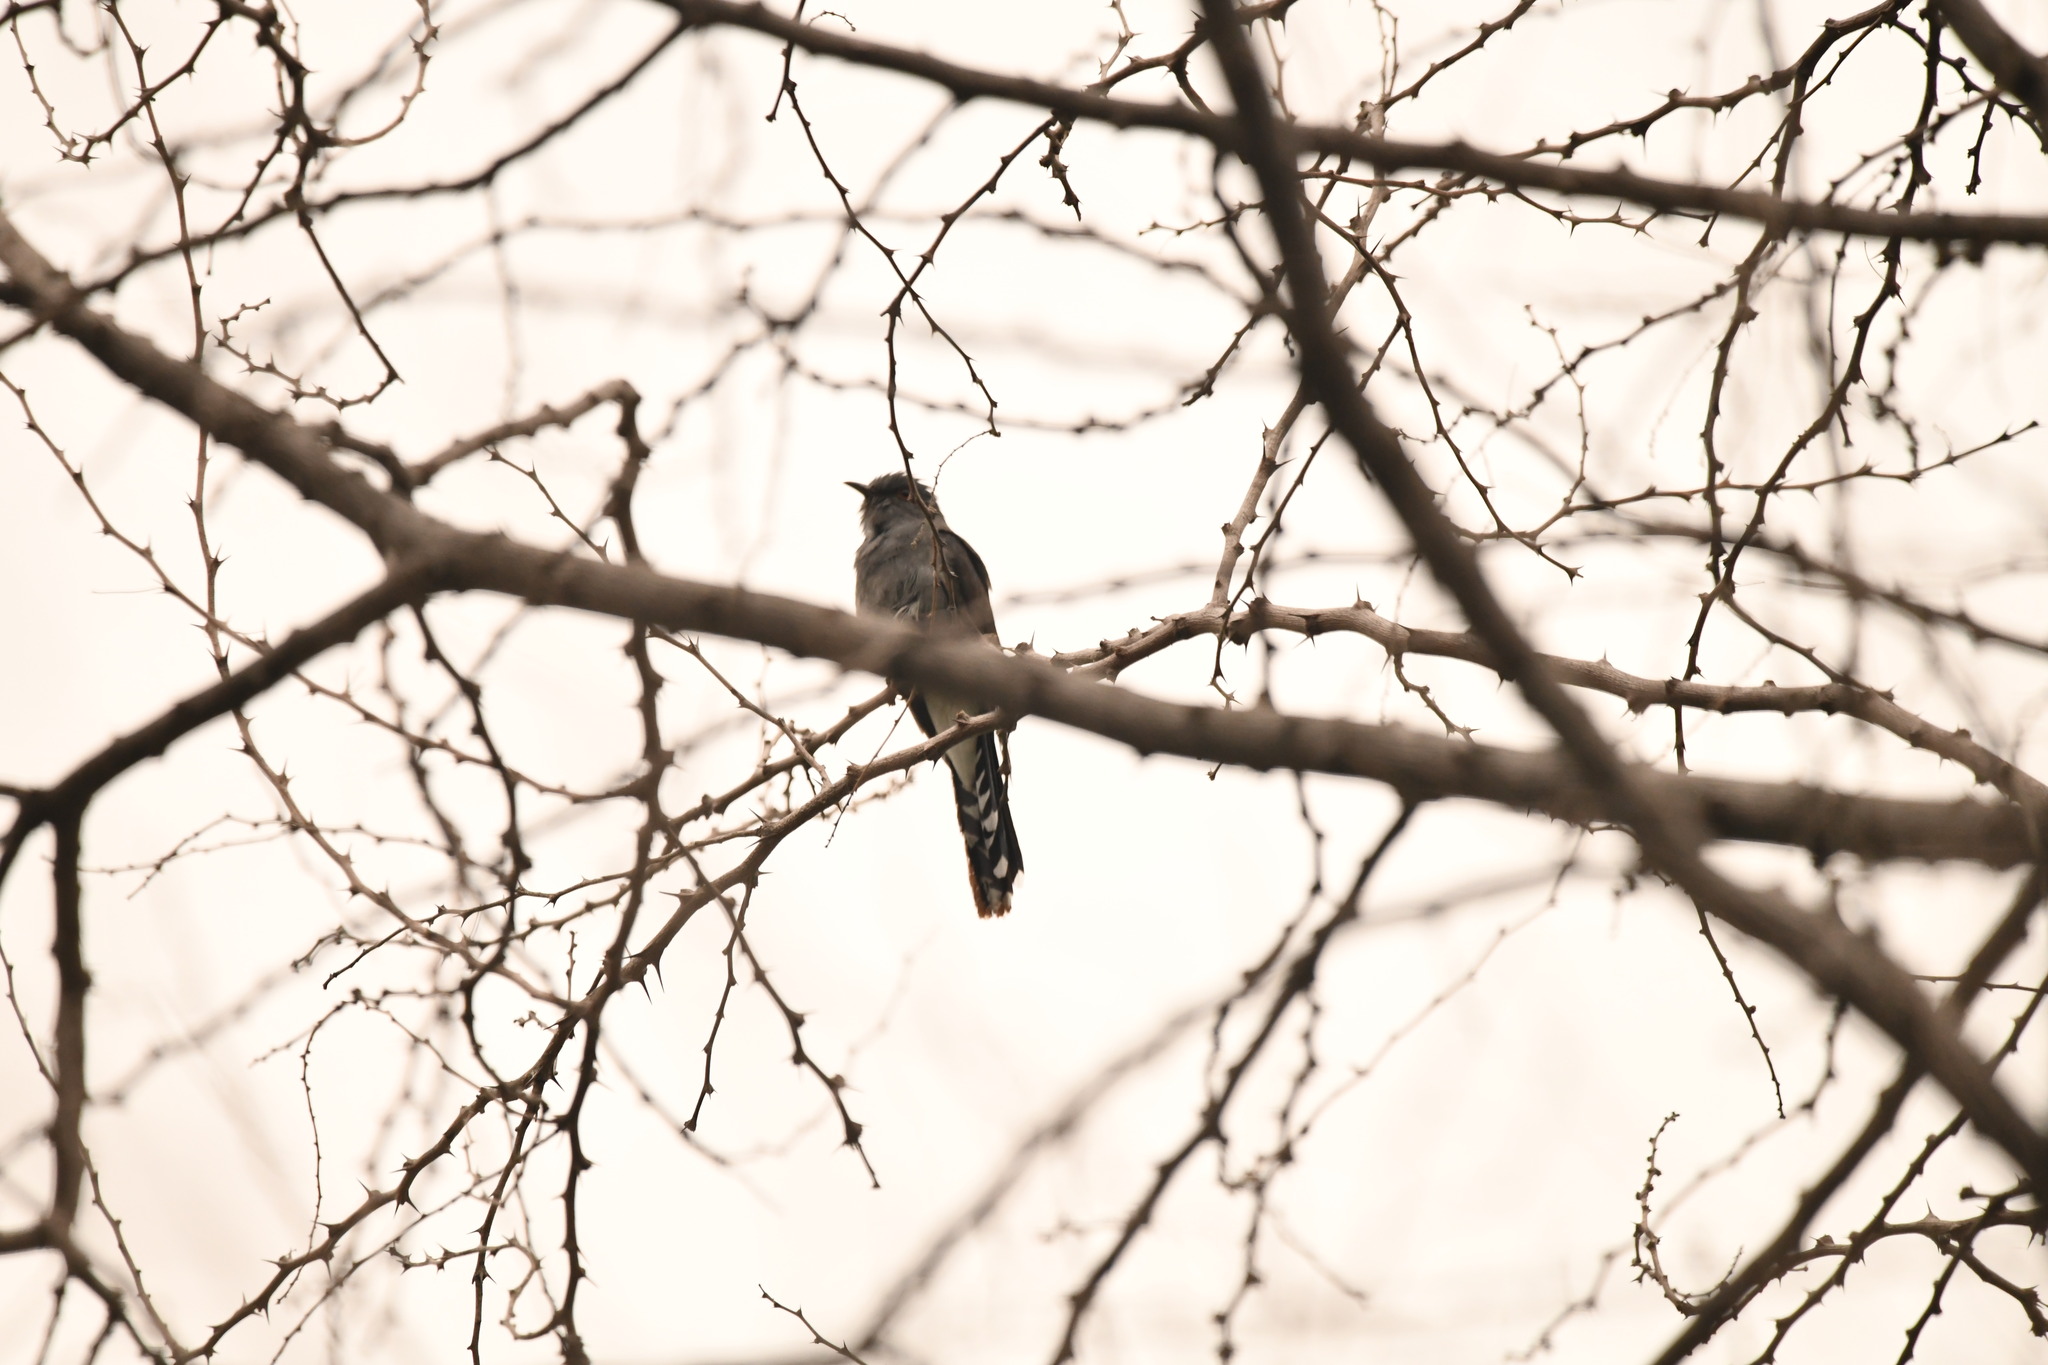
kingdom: Animalia
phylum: Chordata
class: Aves
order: Cuculiformes
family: Cuculidae
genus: Cacomantis
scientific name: Cacomantis passerinus
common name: Grey-bellied cuckoo
